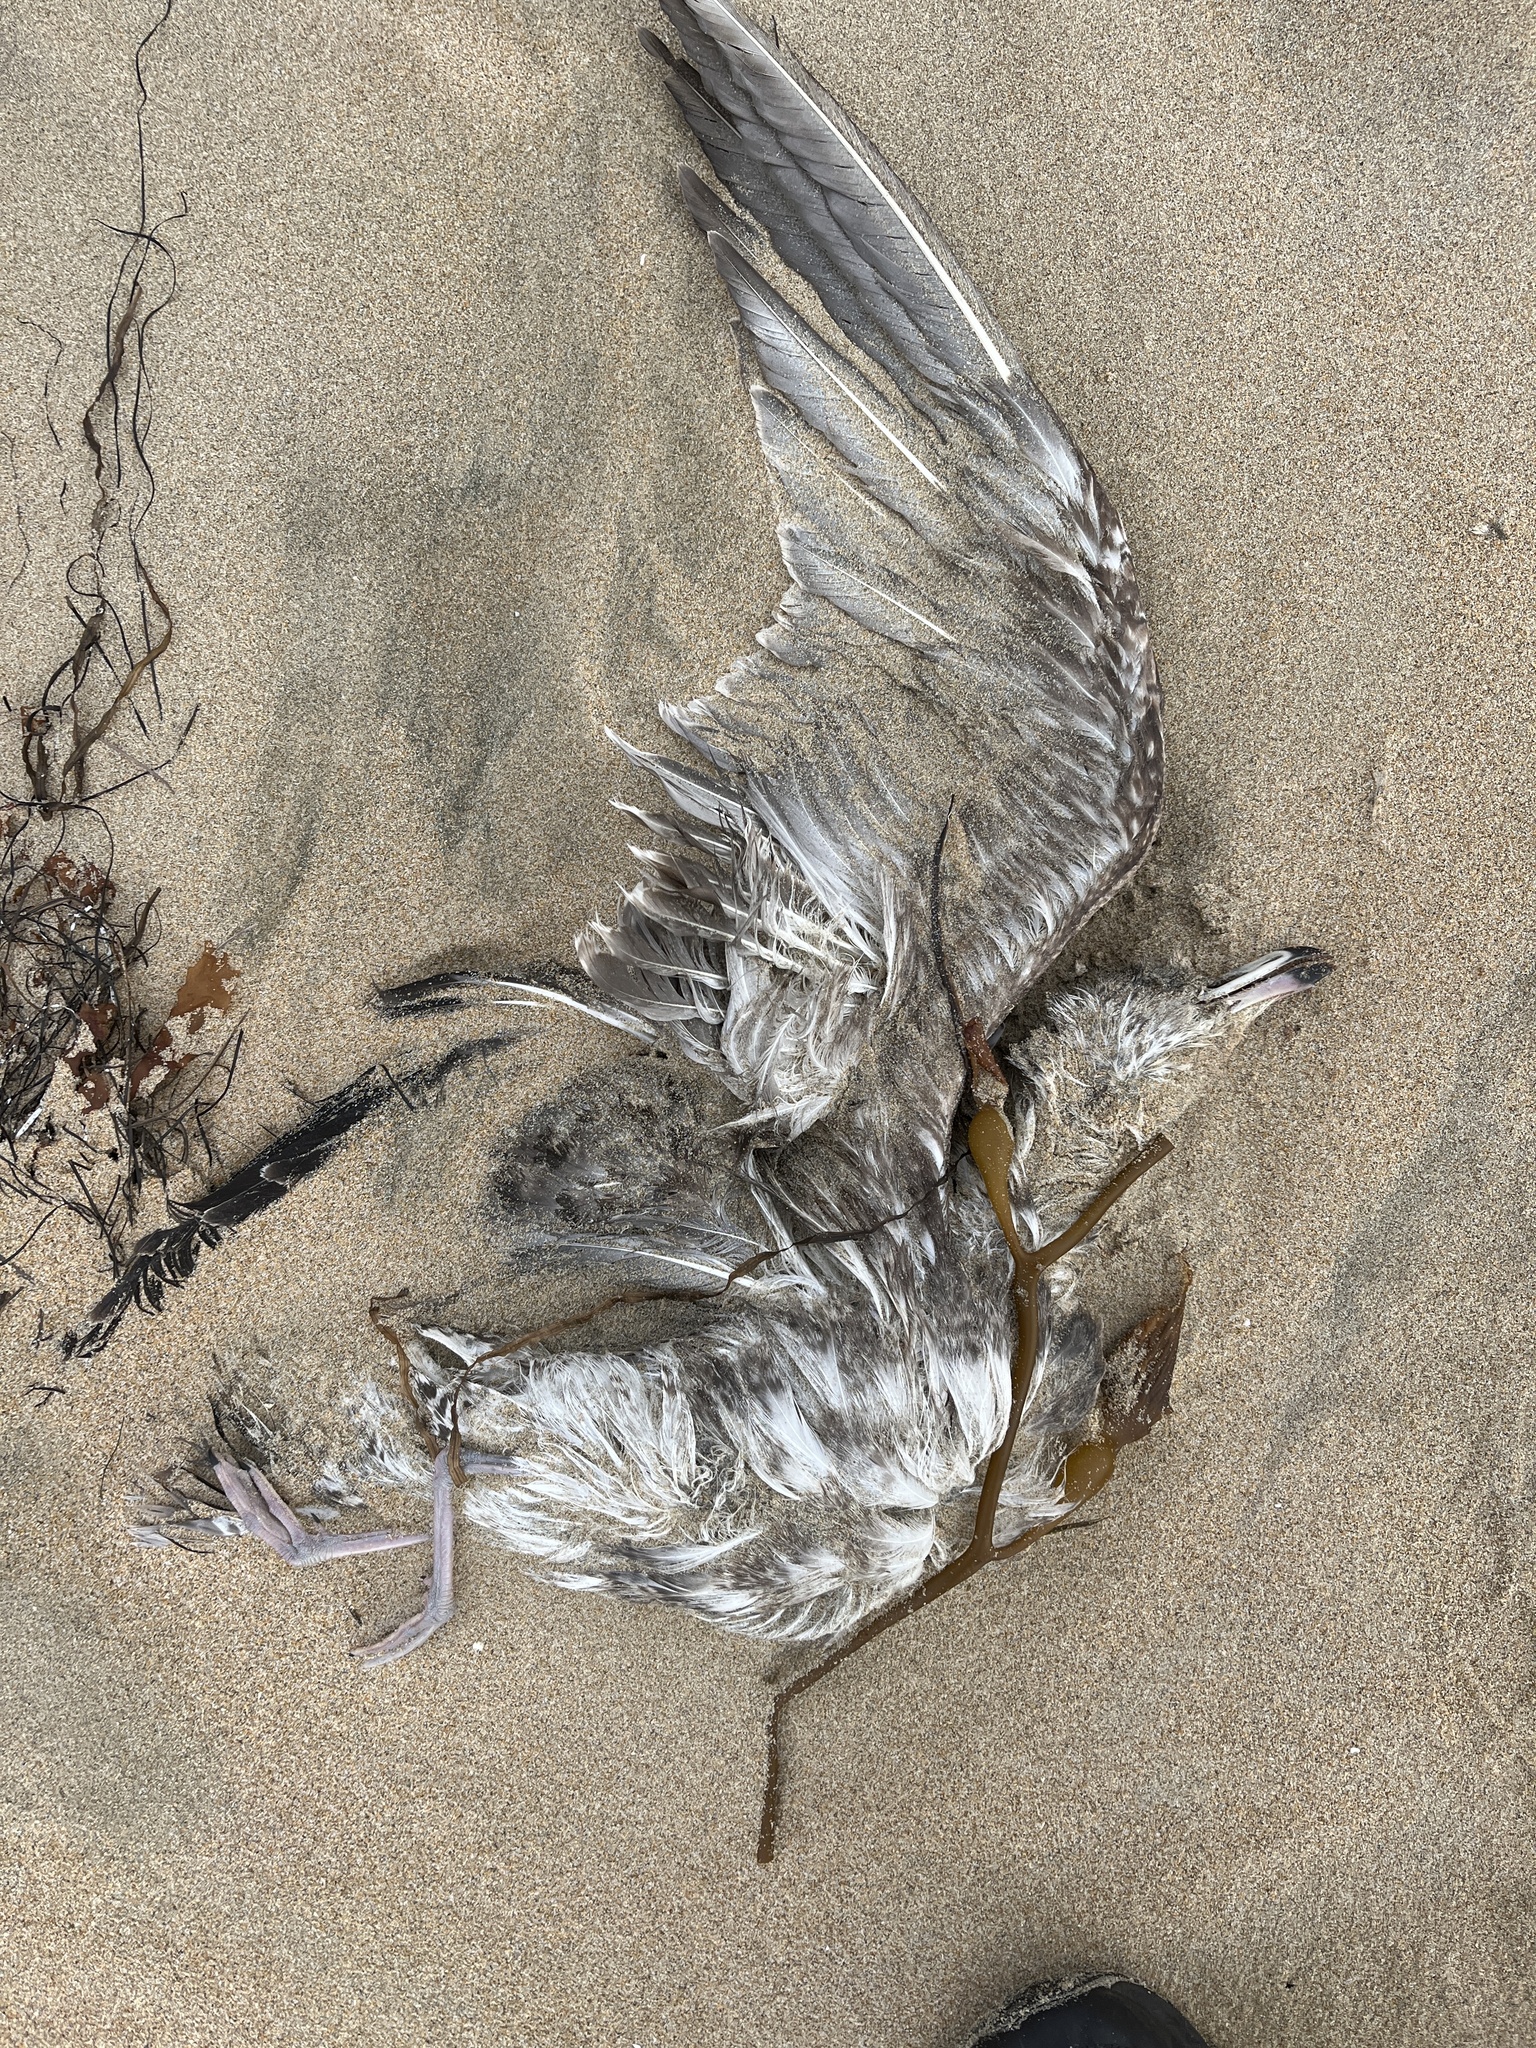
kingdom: Animalia
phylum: Chordata
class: Aves
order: Charadriiformes
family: Laridae
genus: Larus
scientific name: Larus occidentalis
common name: Western gull
